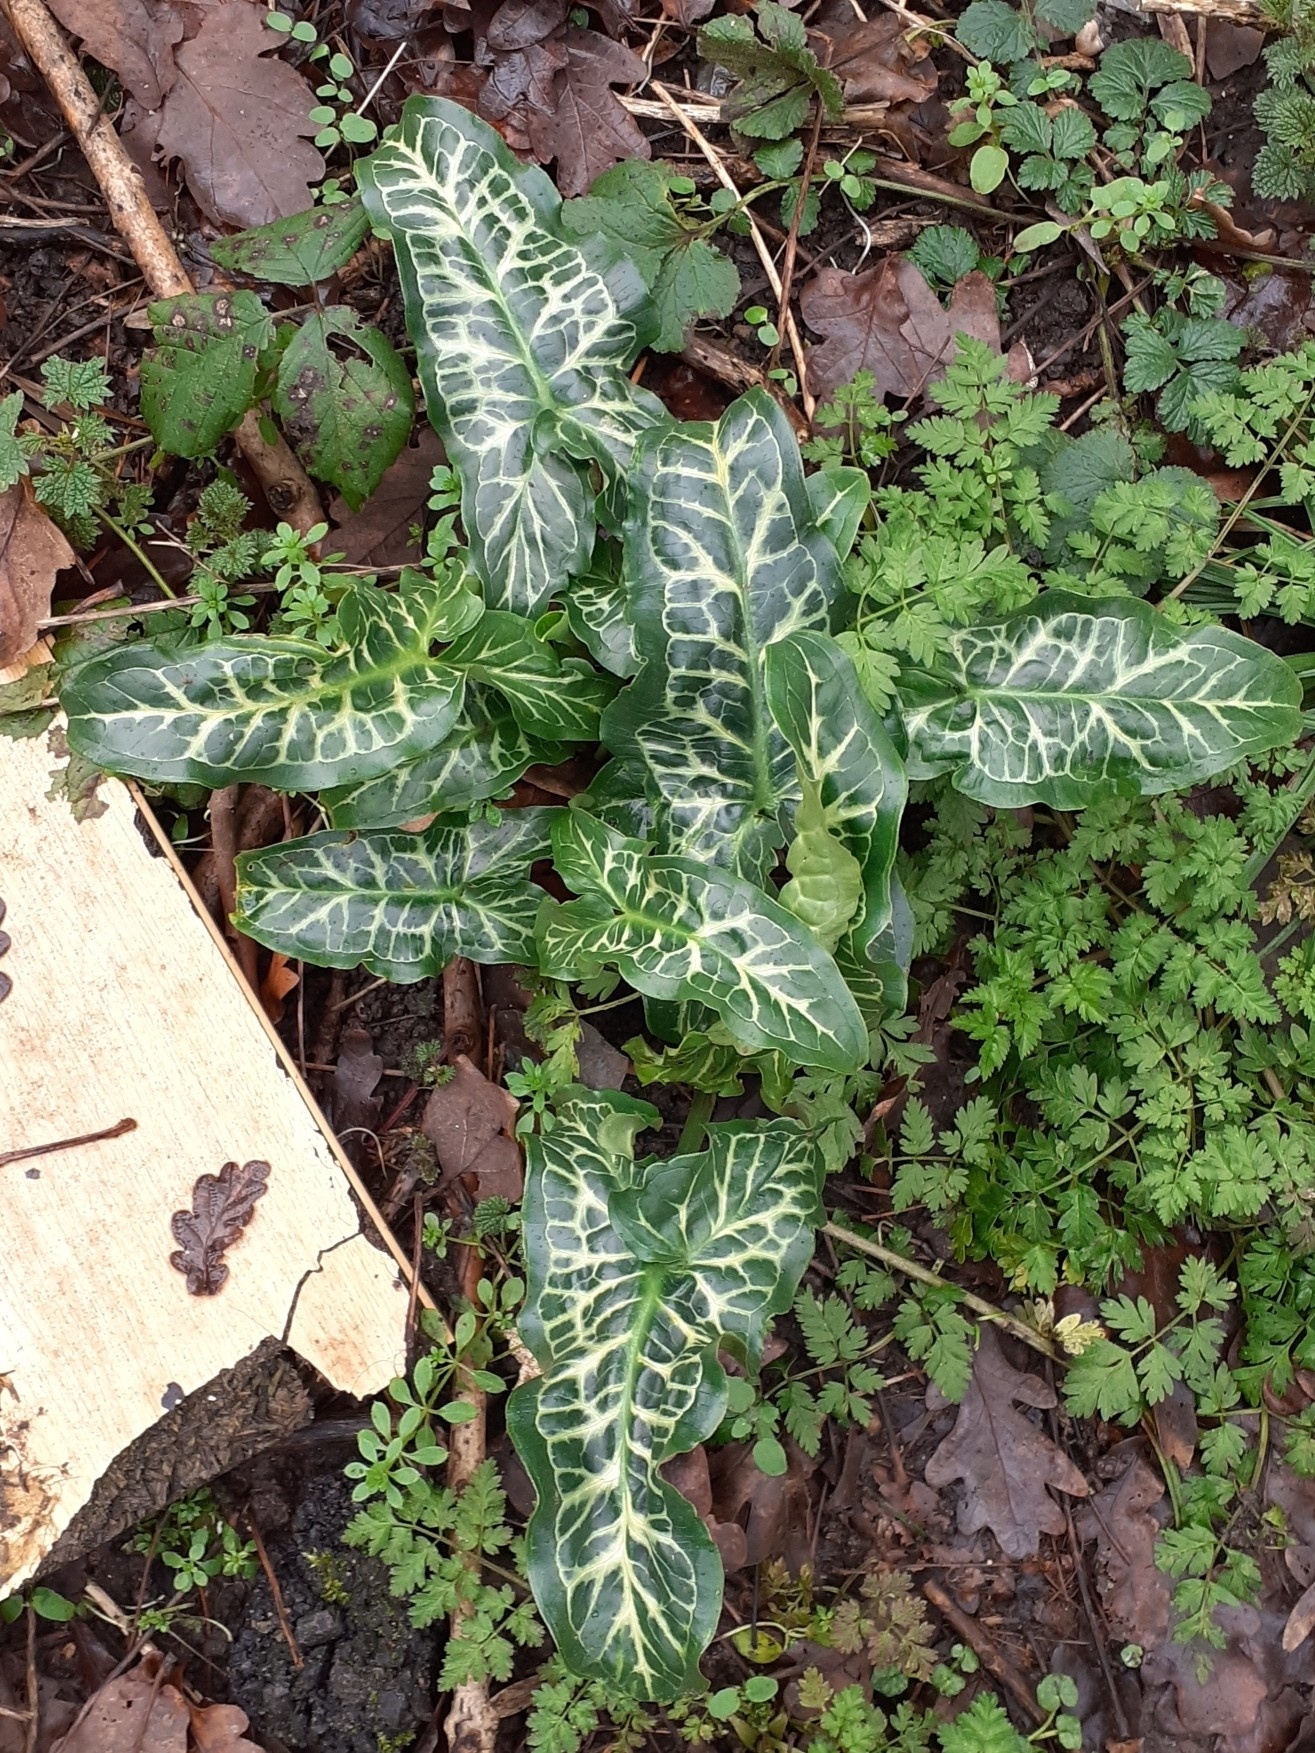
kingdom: Plantae
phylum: Tracheophyta
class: Liliopsida
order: Alismatales
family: Araceae
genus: Arum
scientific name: Arum italicum
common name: Italian lords-and-ladies
